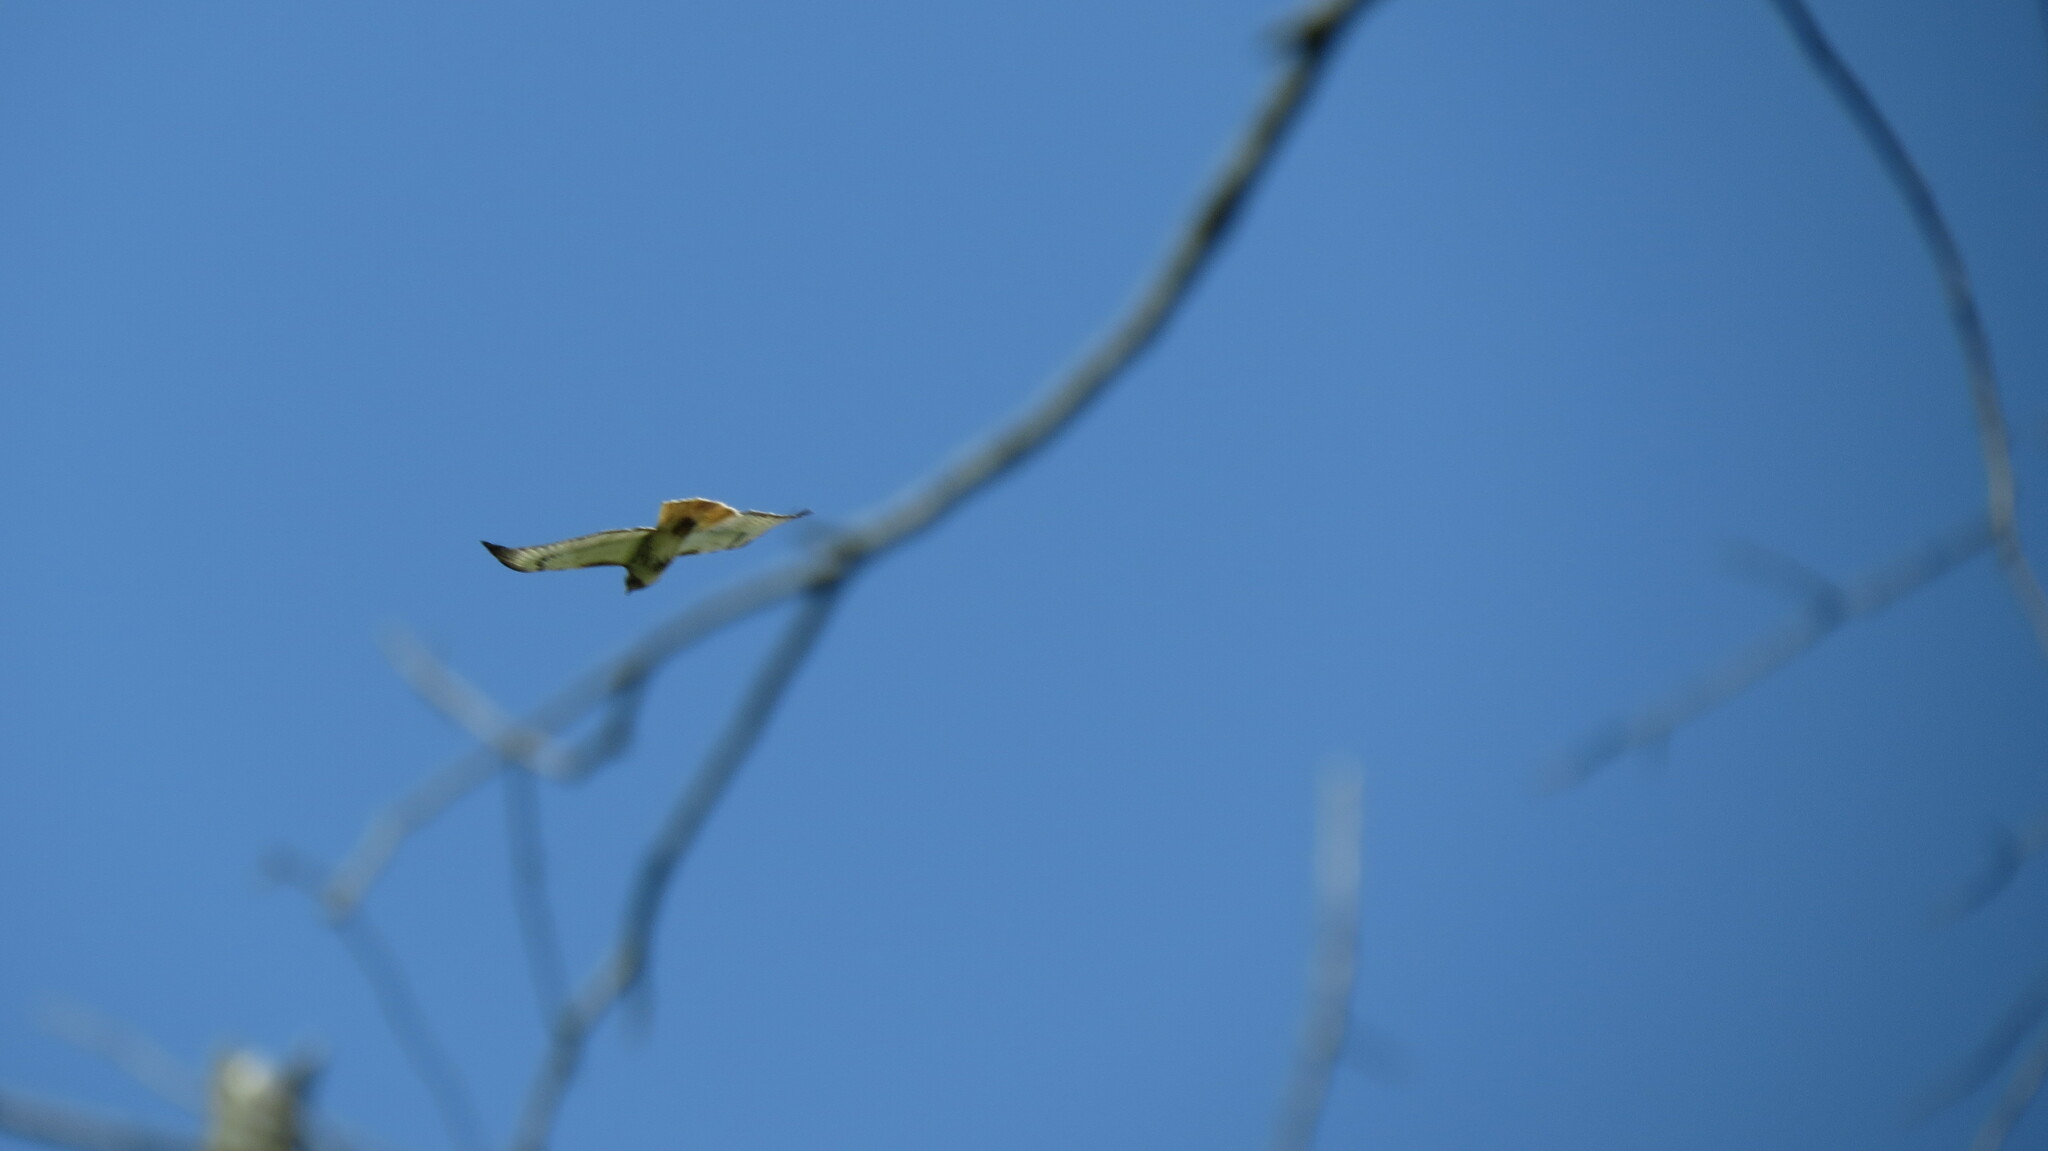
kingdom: Animalia
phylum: Chordata
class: Aves
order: Accipitriformes
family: Accipitridae
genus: Buteo
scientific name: Buteo jamaicensis
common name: Red-tailed hawk
